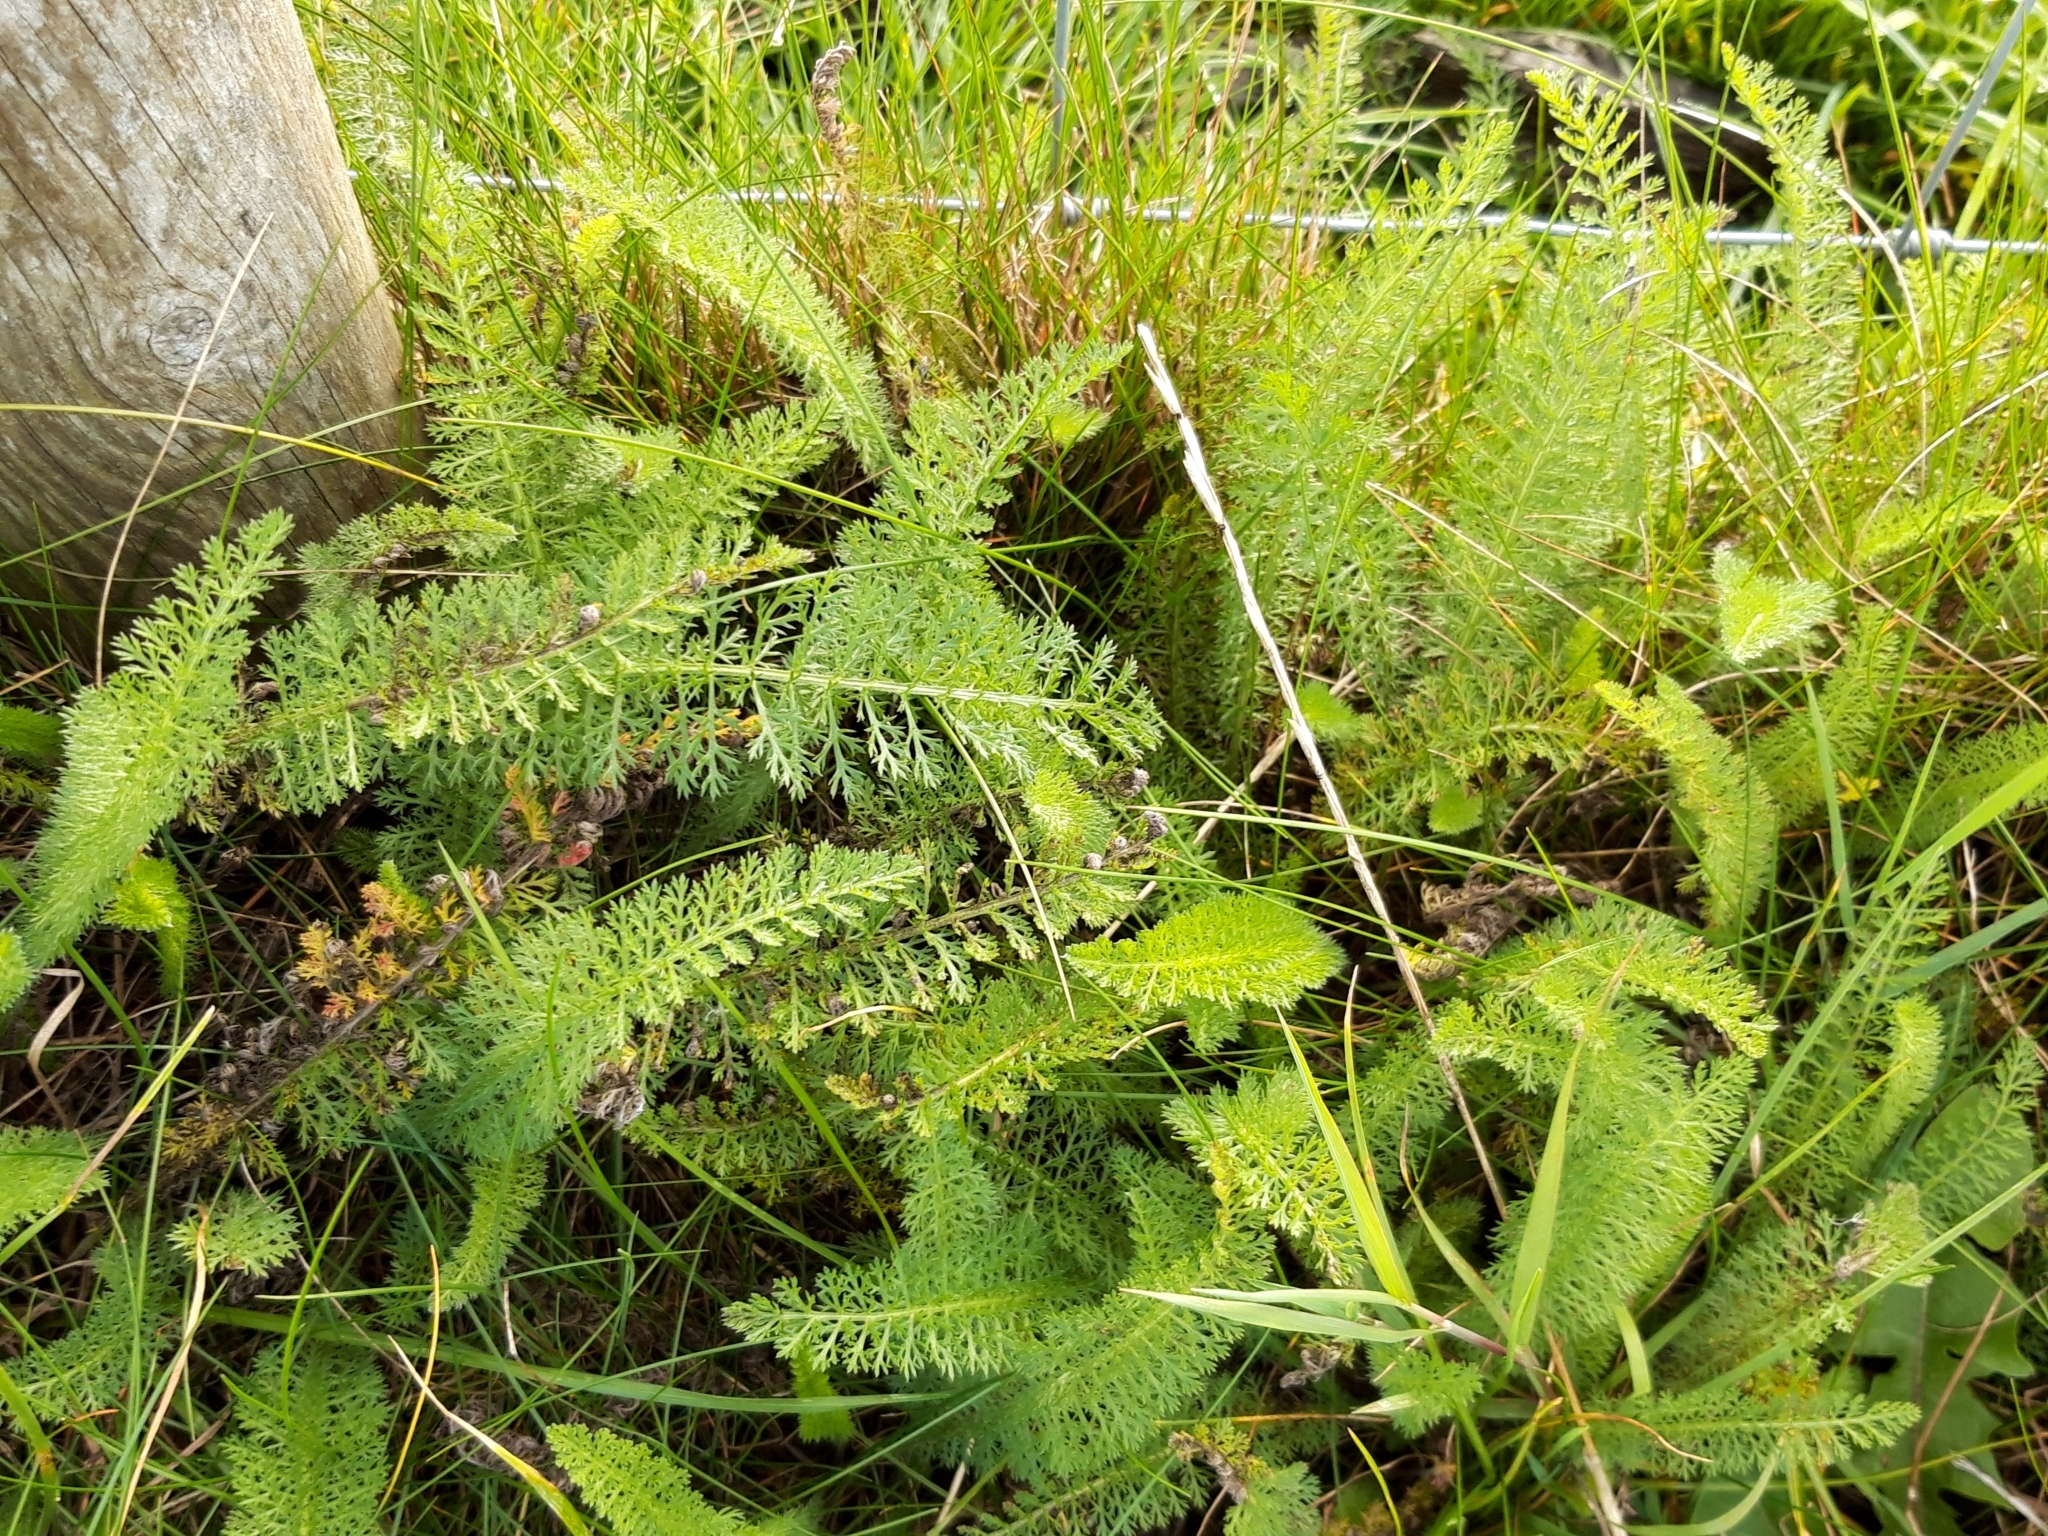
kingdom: Plantae
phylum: Tracheophyta
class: Magnoliopsida
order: Asterales
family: Asteraceae
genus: Achillea
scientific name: Achillea millefolium
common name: Yarrow
